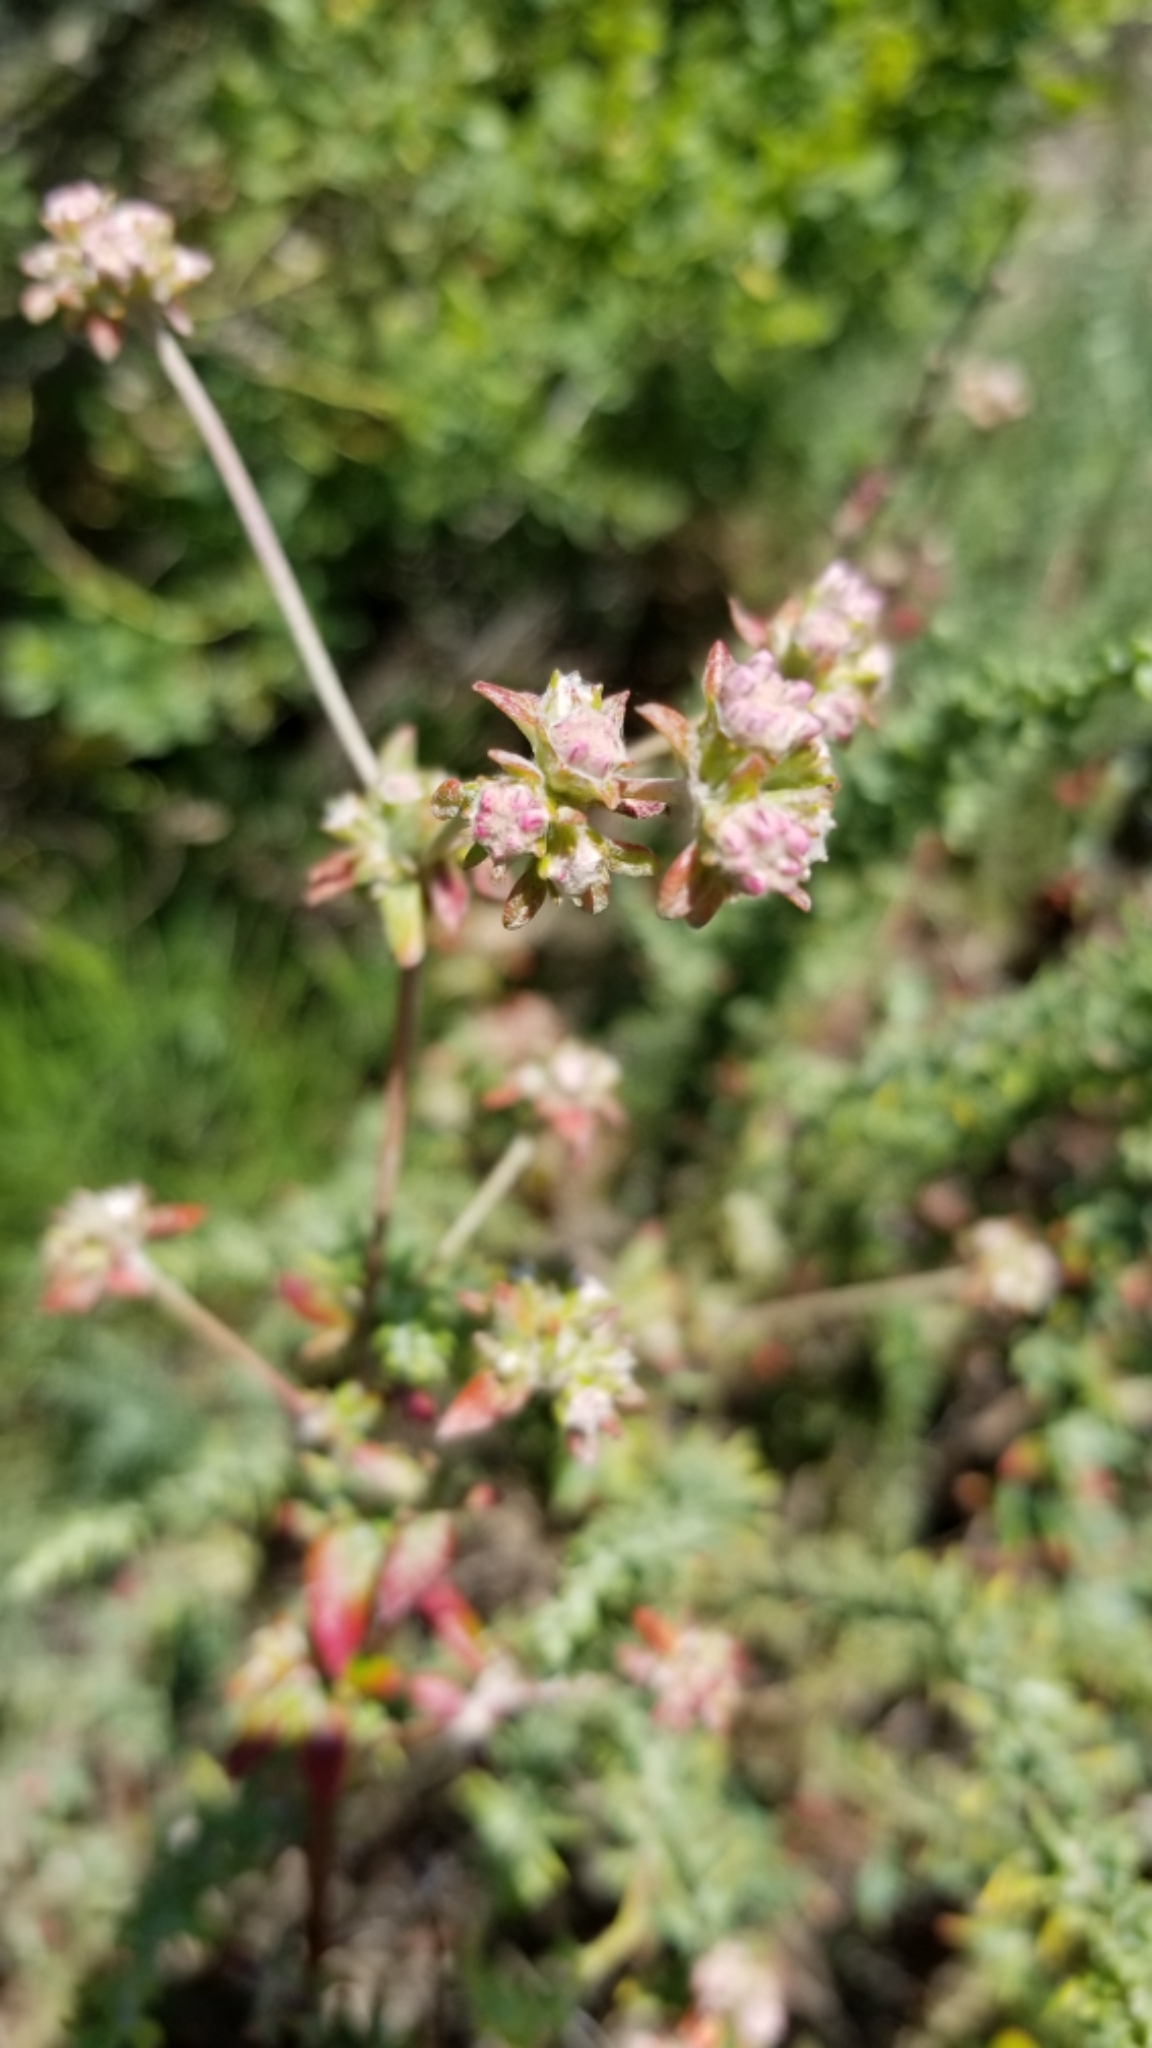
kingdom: Plantae
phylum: Tracheophyta
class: Magnoliopsida
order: Caryophyllales
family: Polygonaceae
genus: Eriogonum
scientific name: Eriogonum parvifolium
